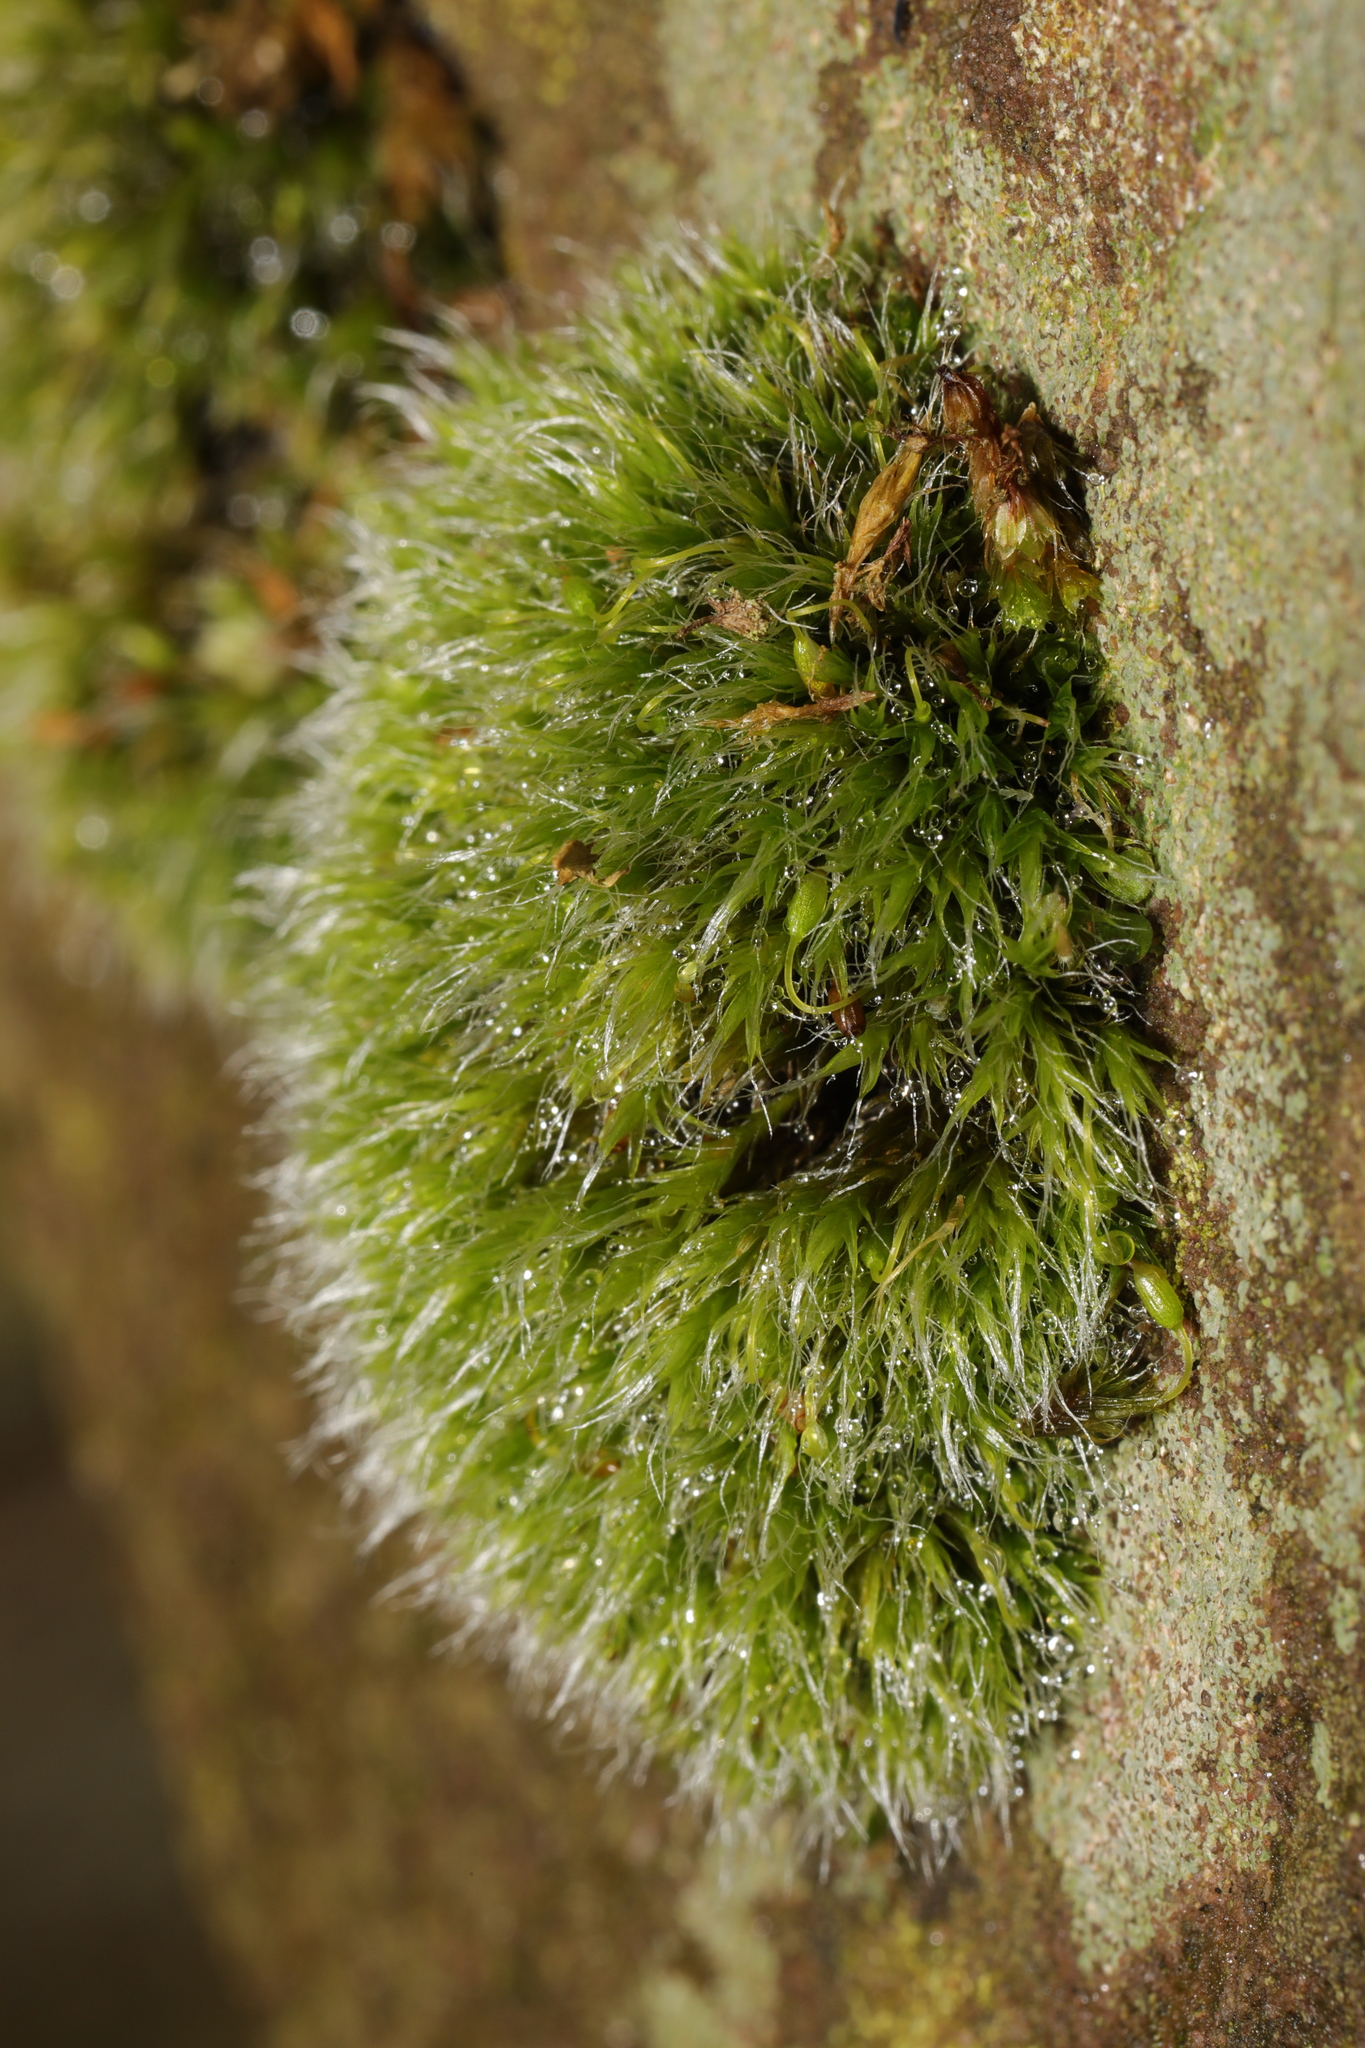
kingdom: Plantae
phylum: Bryophyta
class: Bryopsida
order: Grimmiales
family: Grimmiaceae
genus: Grimmia
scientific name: Grimmia pulvinata
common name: Grey-cushioned grimmia
